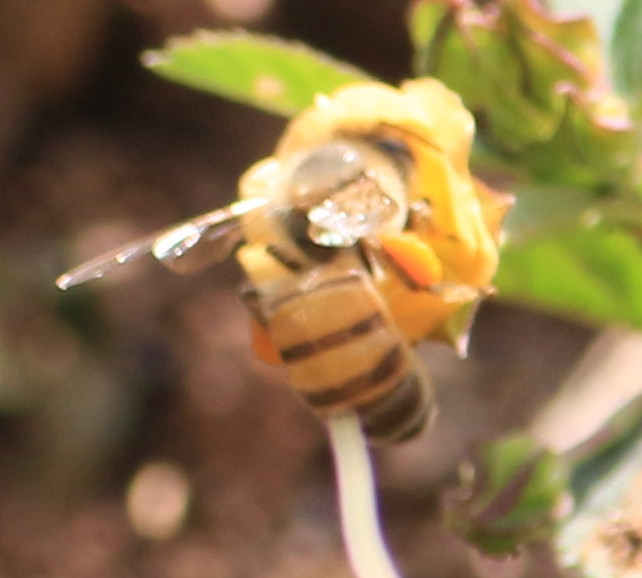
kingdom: Animalia
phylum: Arthropoda
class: Insecta
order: Hymenoptera
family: Apidae
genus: Apis
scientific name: Apis mellifera
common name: Honey bee
